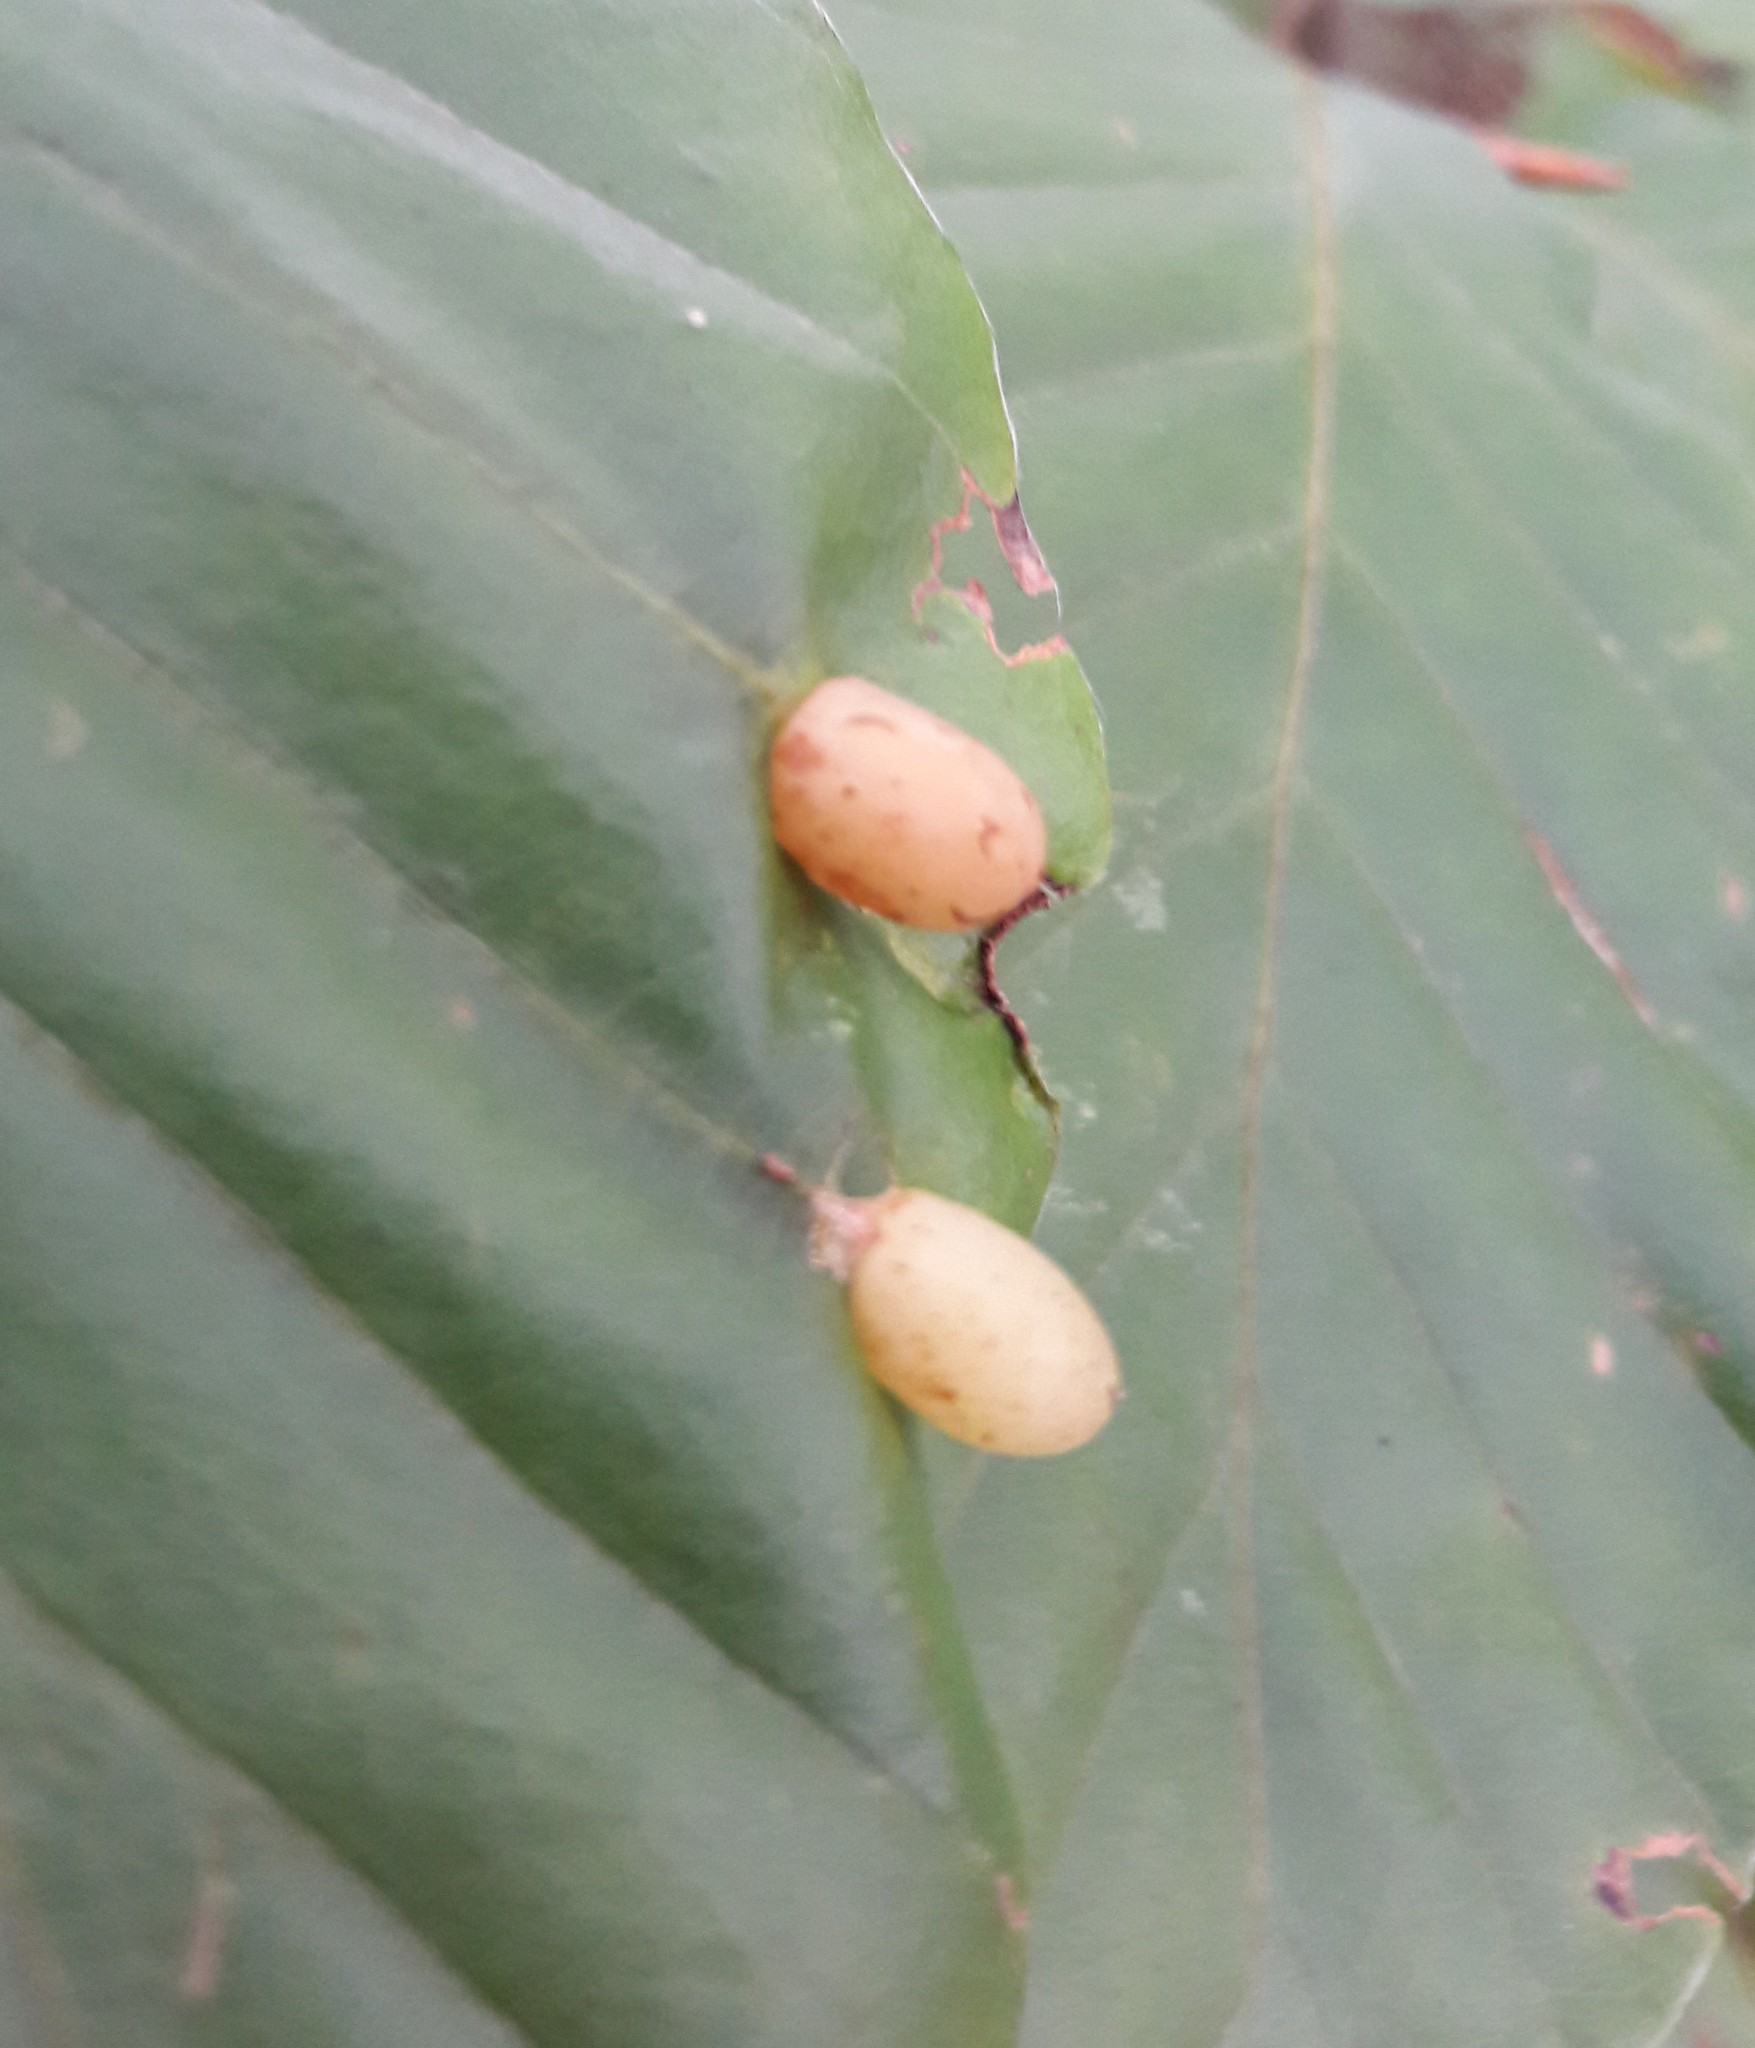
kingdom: Animalia
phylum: Arthropoda
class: Insecta
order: Diptera
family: Cecidomyiidae
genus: Mikiola
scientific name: Mikiola fagi
